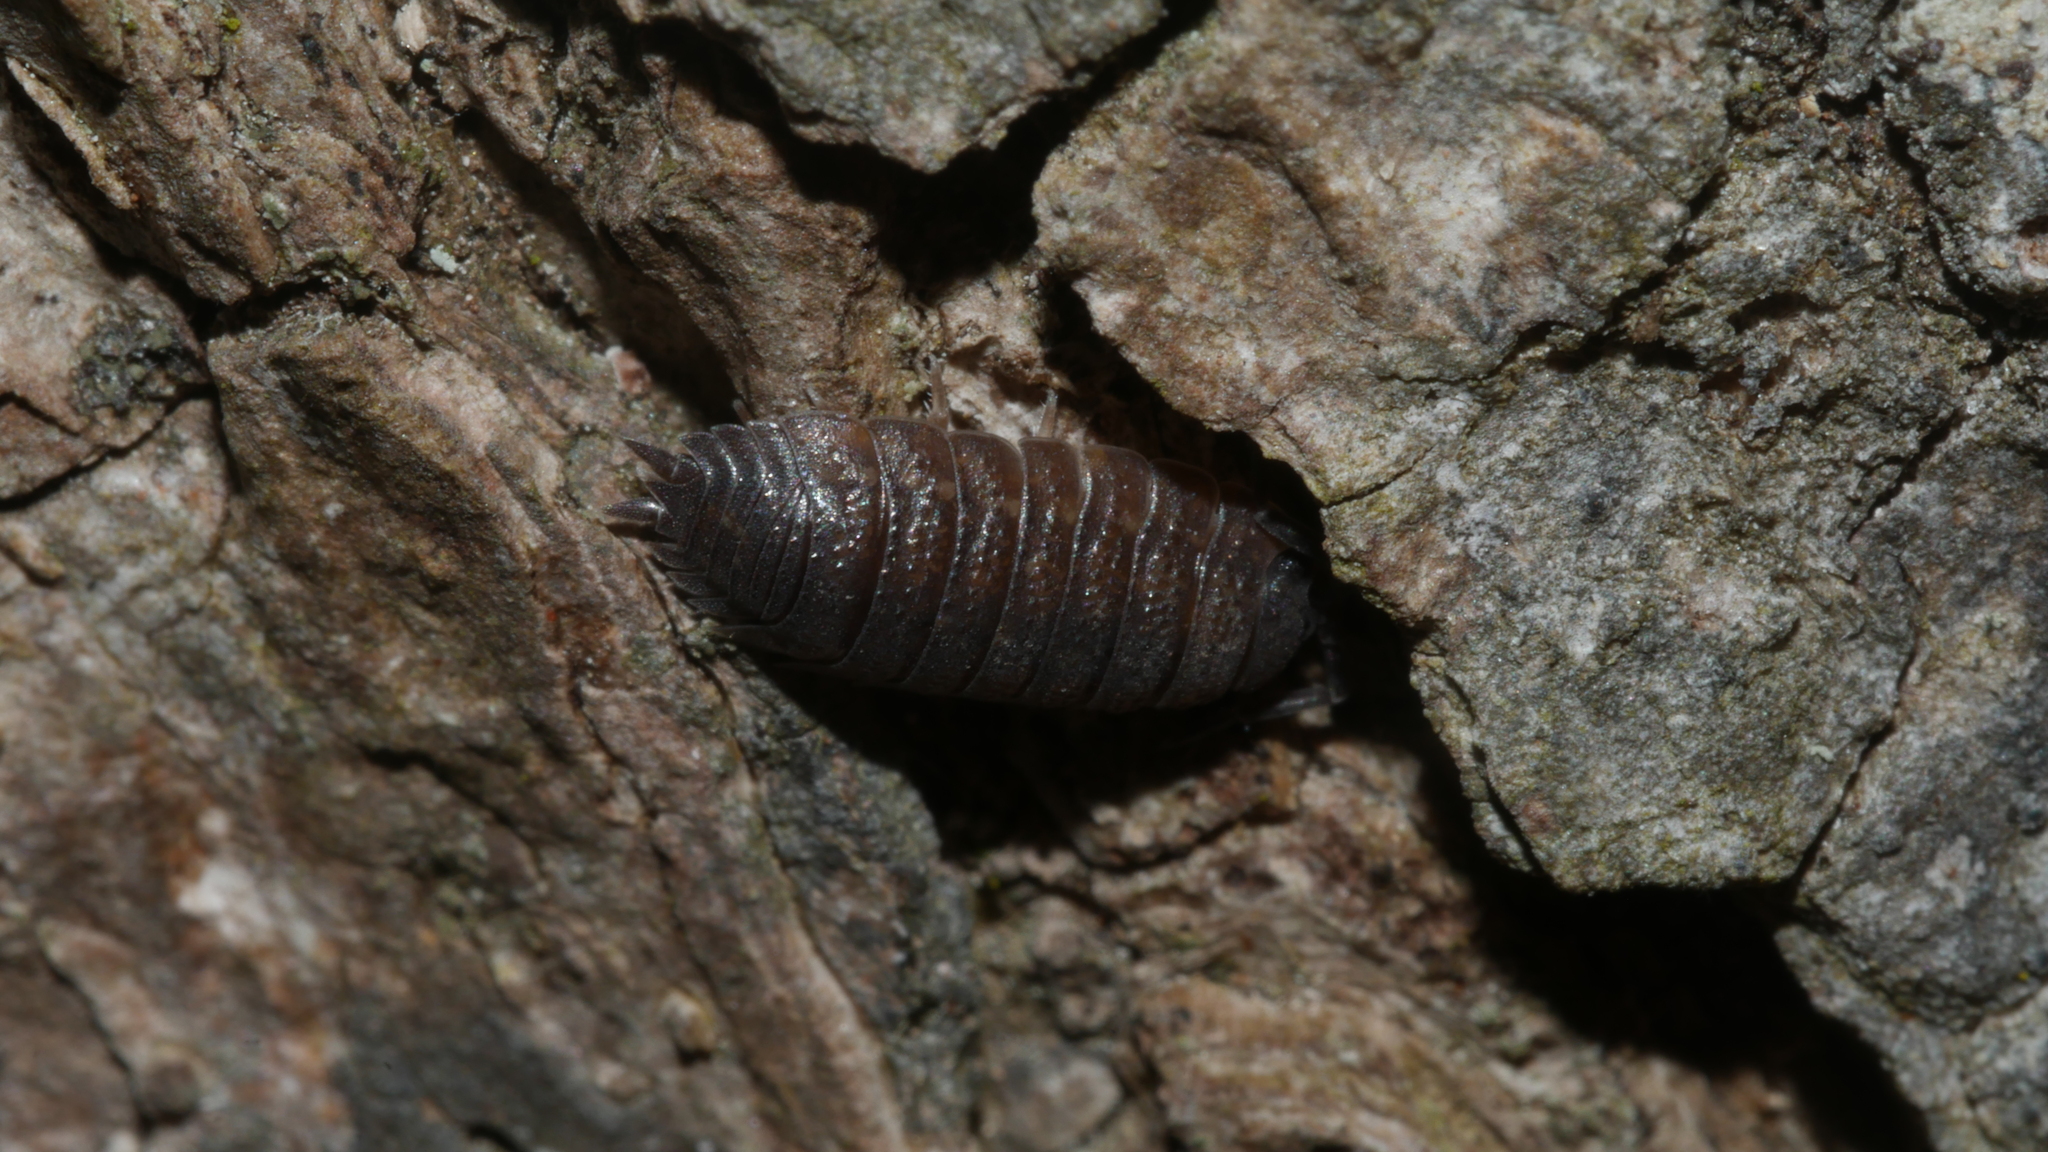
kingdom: Animalia
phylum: Arthropoda
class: Malacostraca
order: Isopoda
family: Porcellionidae
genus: Porcellio
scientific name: Porcellio scaber
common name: Common rough woodlouse
